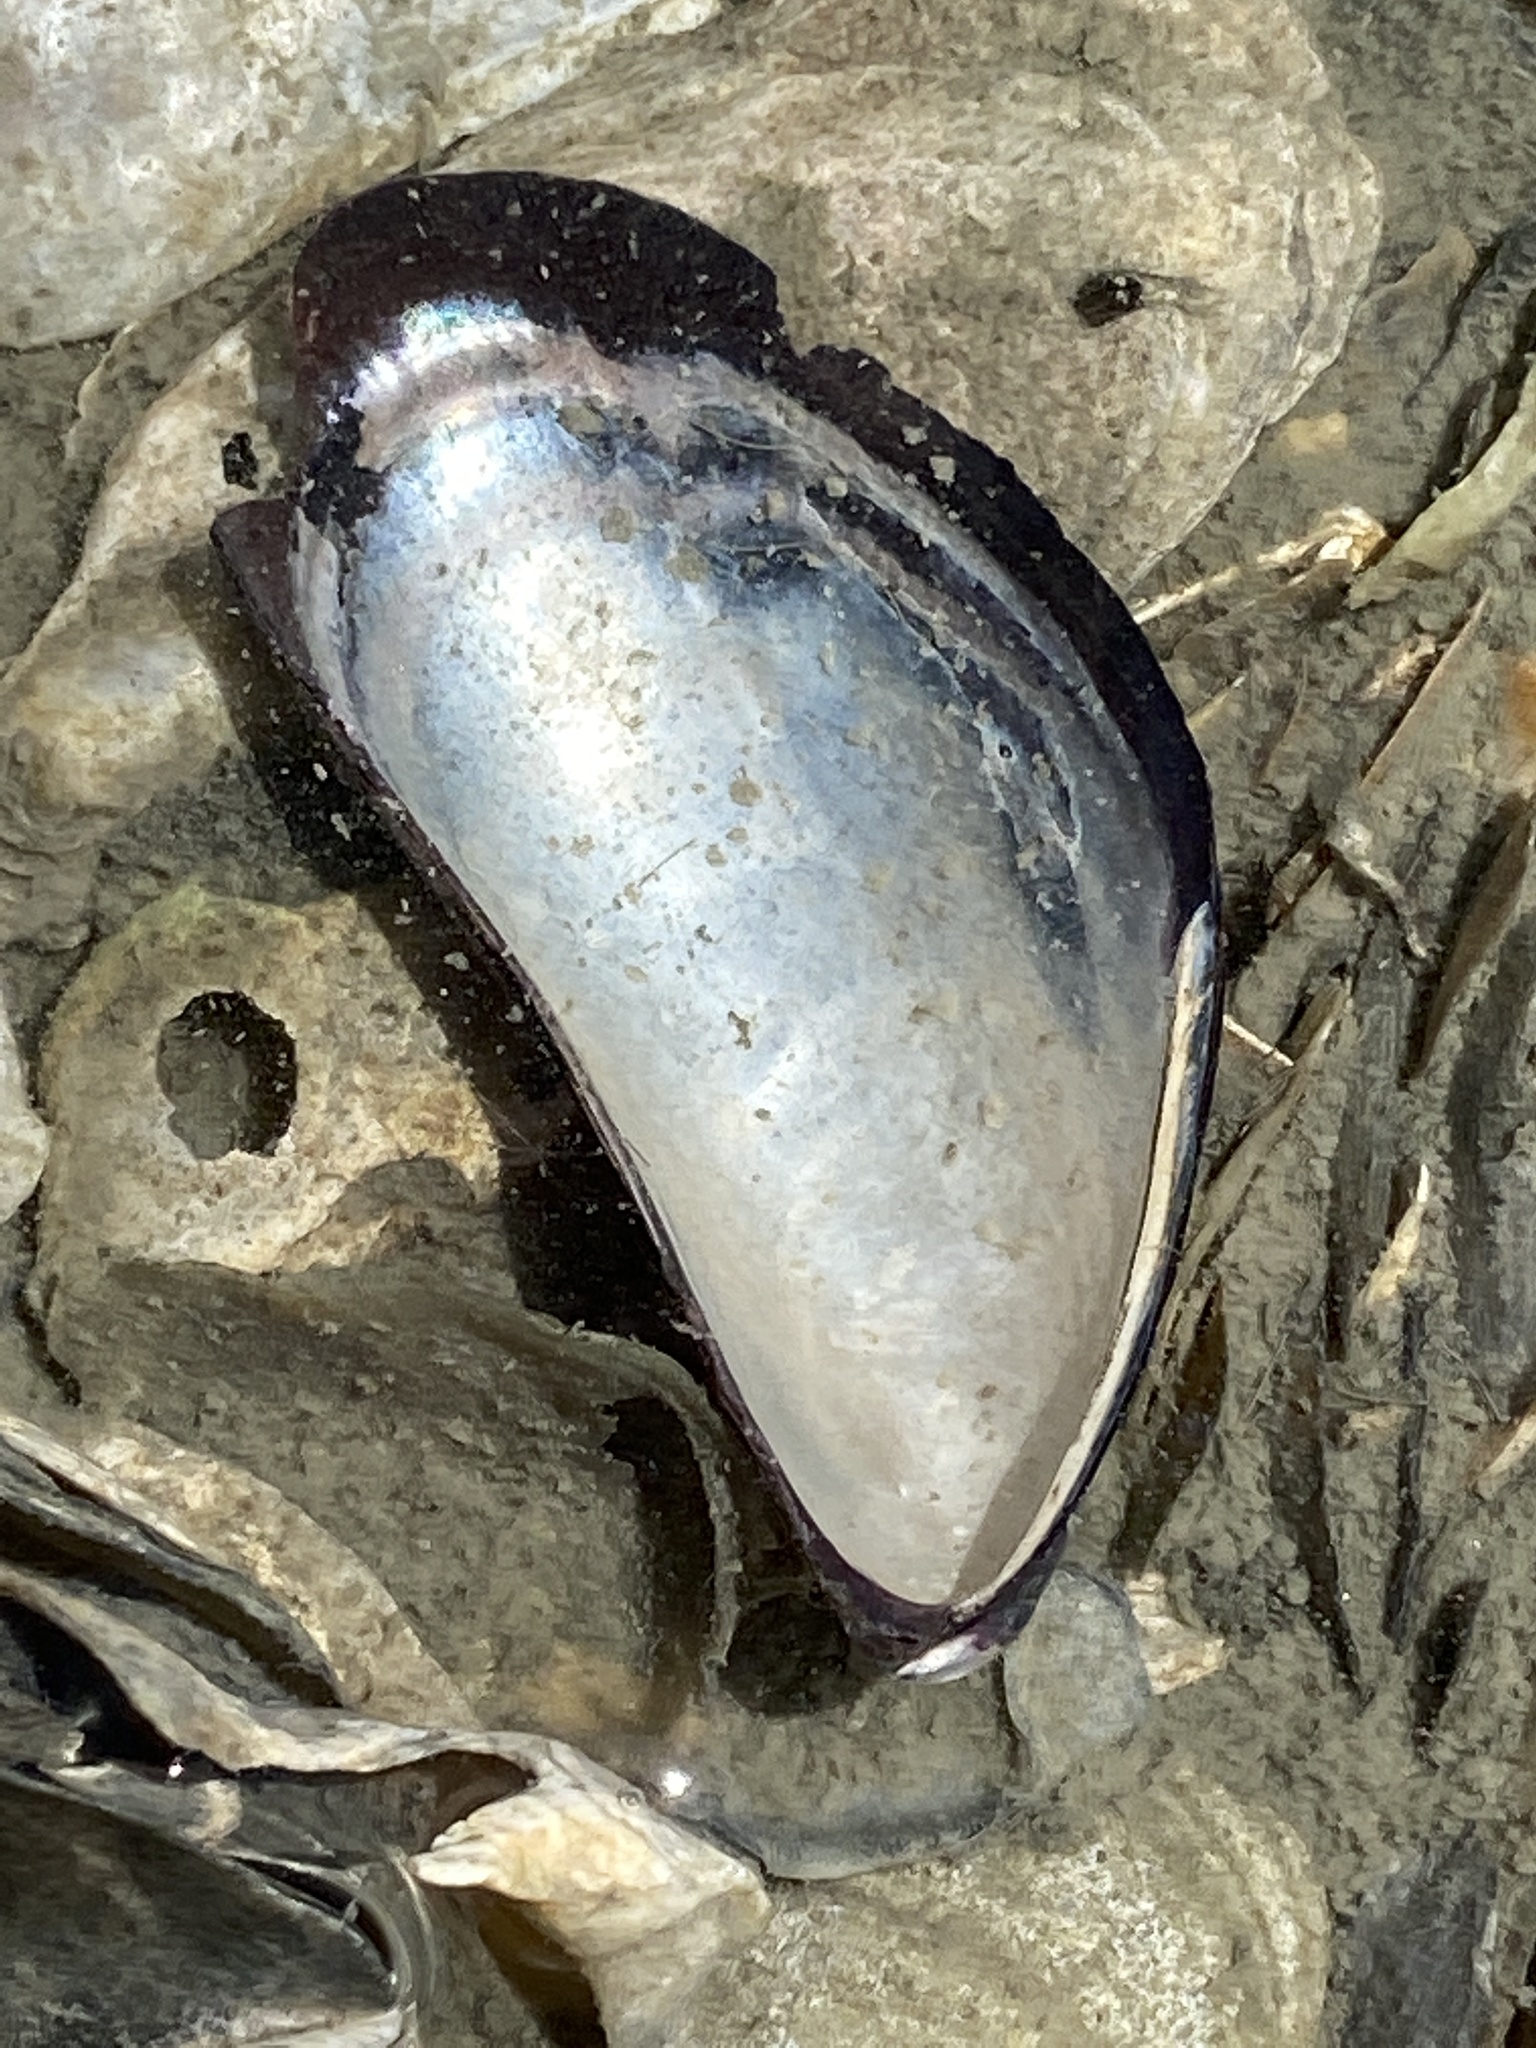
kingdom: Animalia
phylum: Mollusca
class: Bivalvia
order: Mytilida
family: Mytilidae
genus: Mytilus
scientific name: Mytilus
